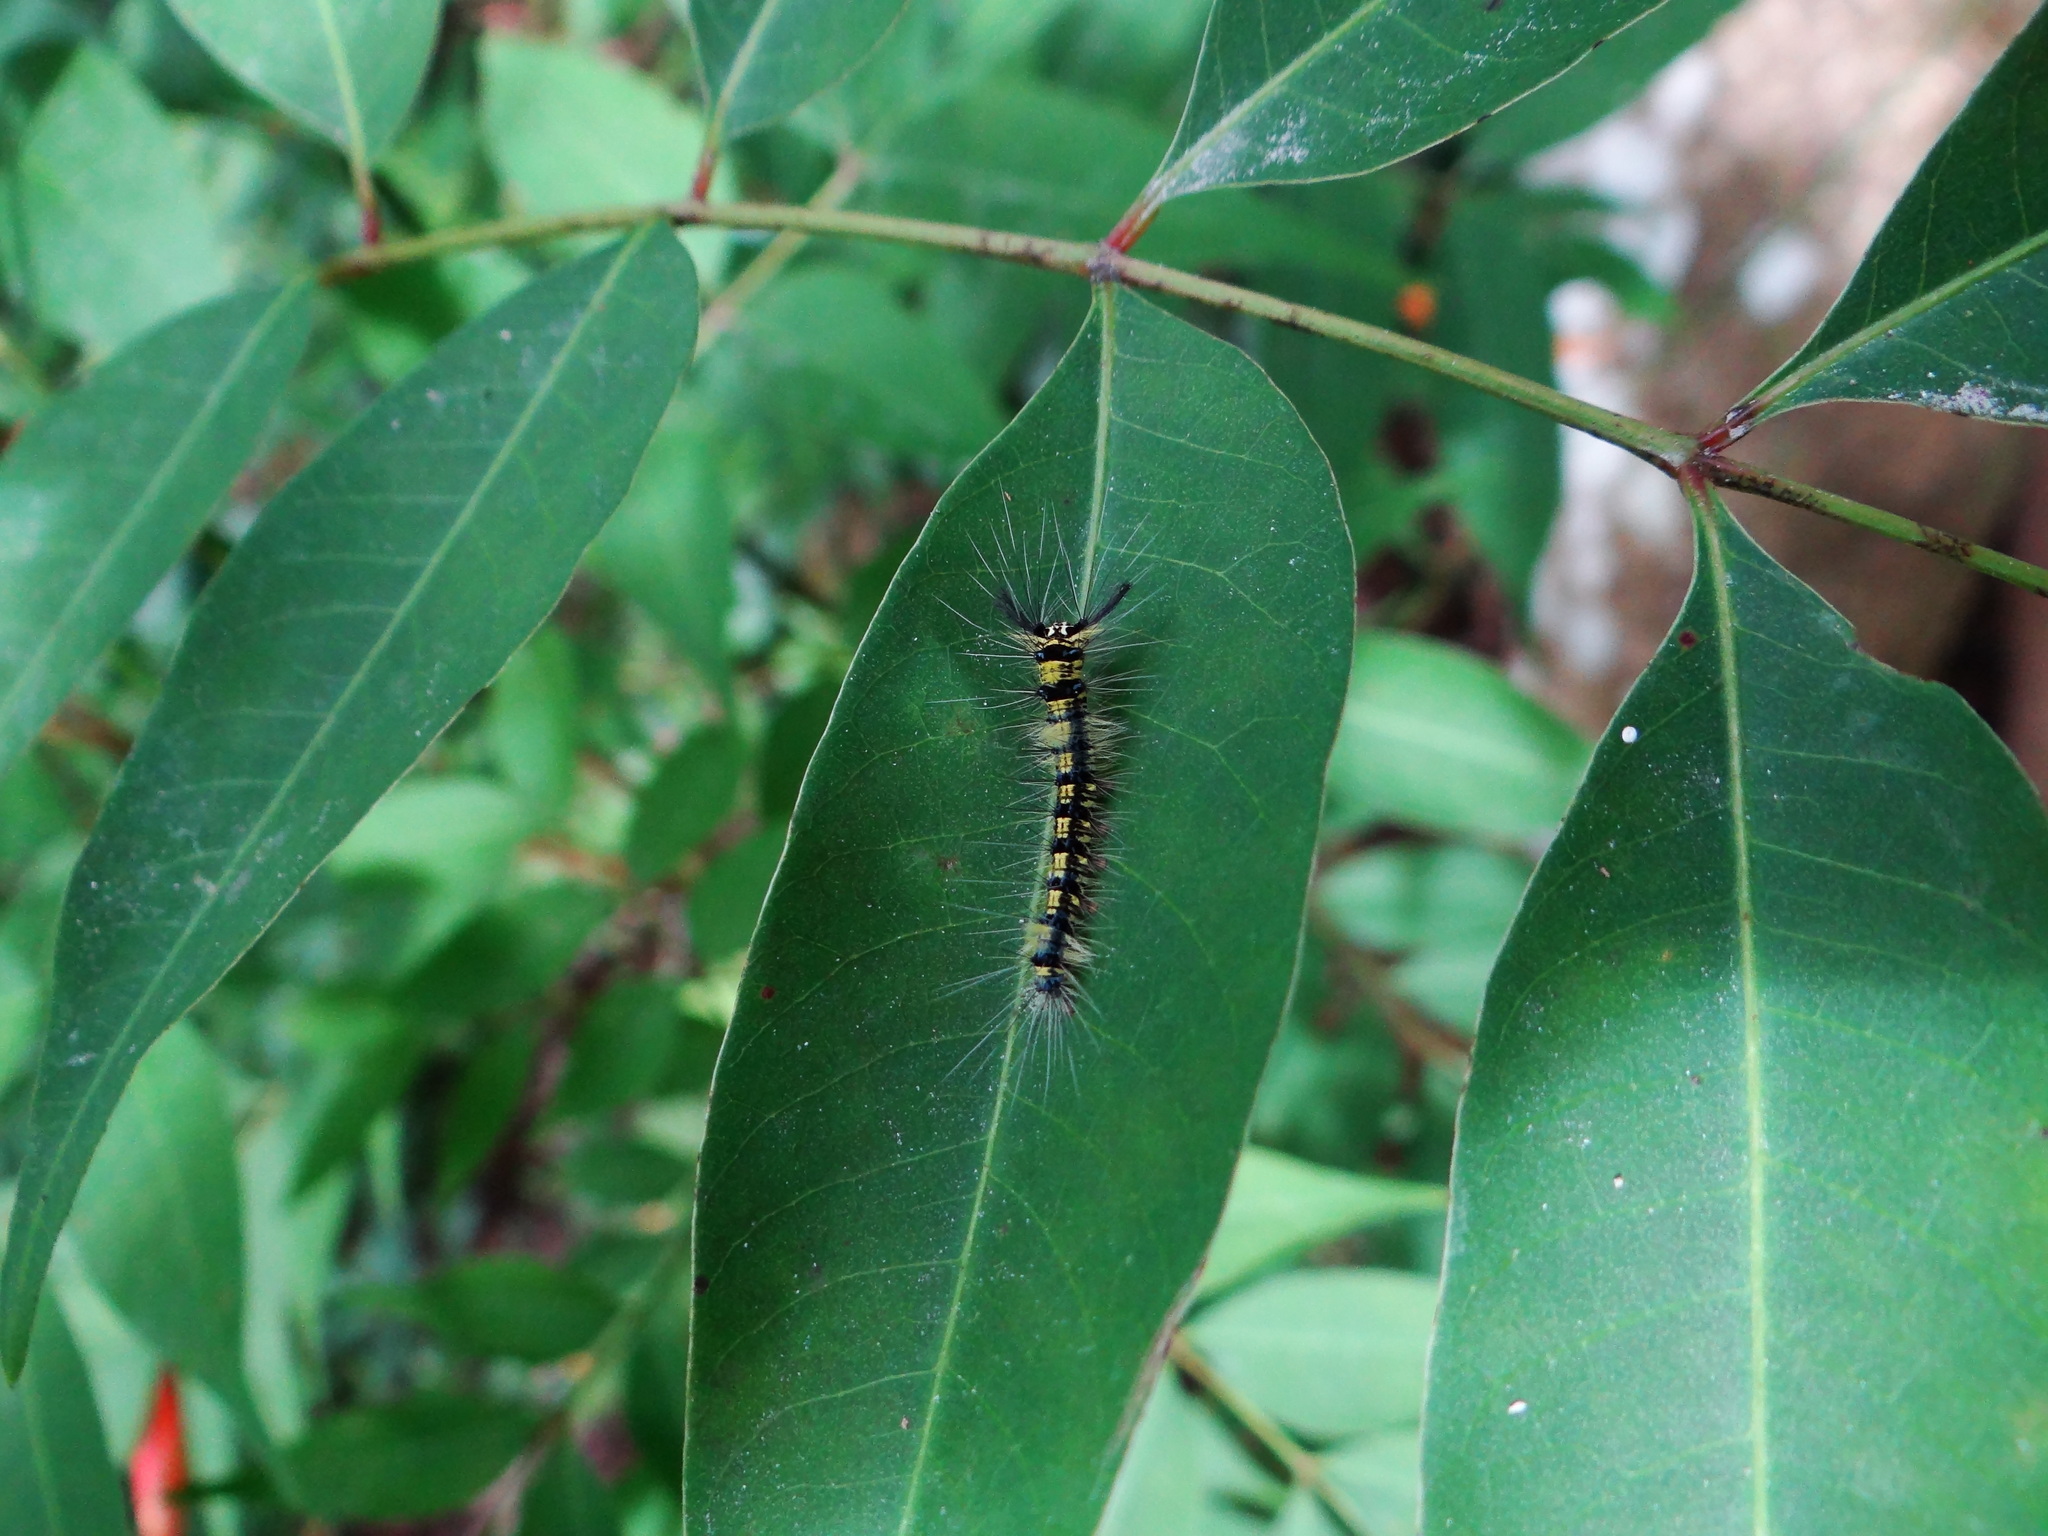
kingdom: Animalia
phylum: Arthropoda
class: Insecta
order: Lepidoptera
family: Lasiocampidae
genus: Trabala
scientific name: Trabala vishnou
